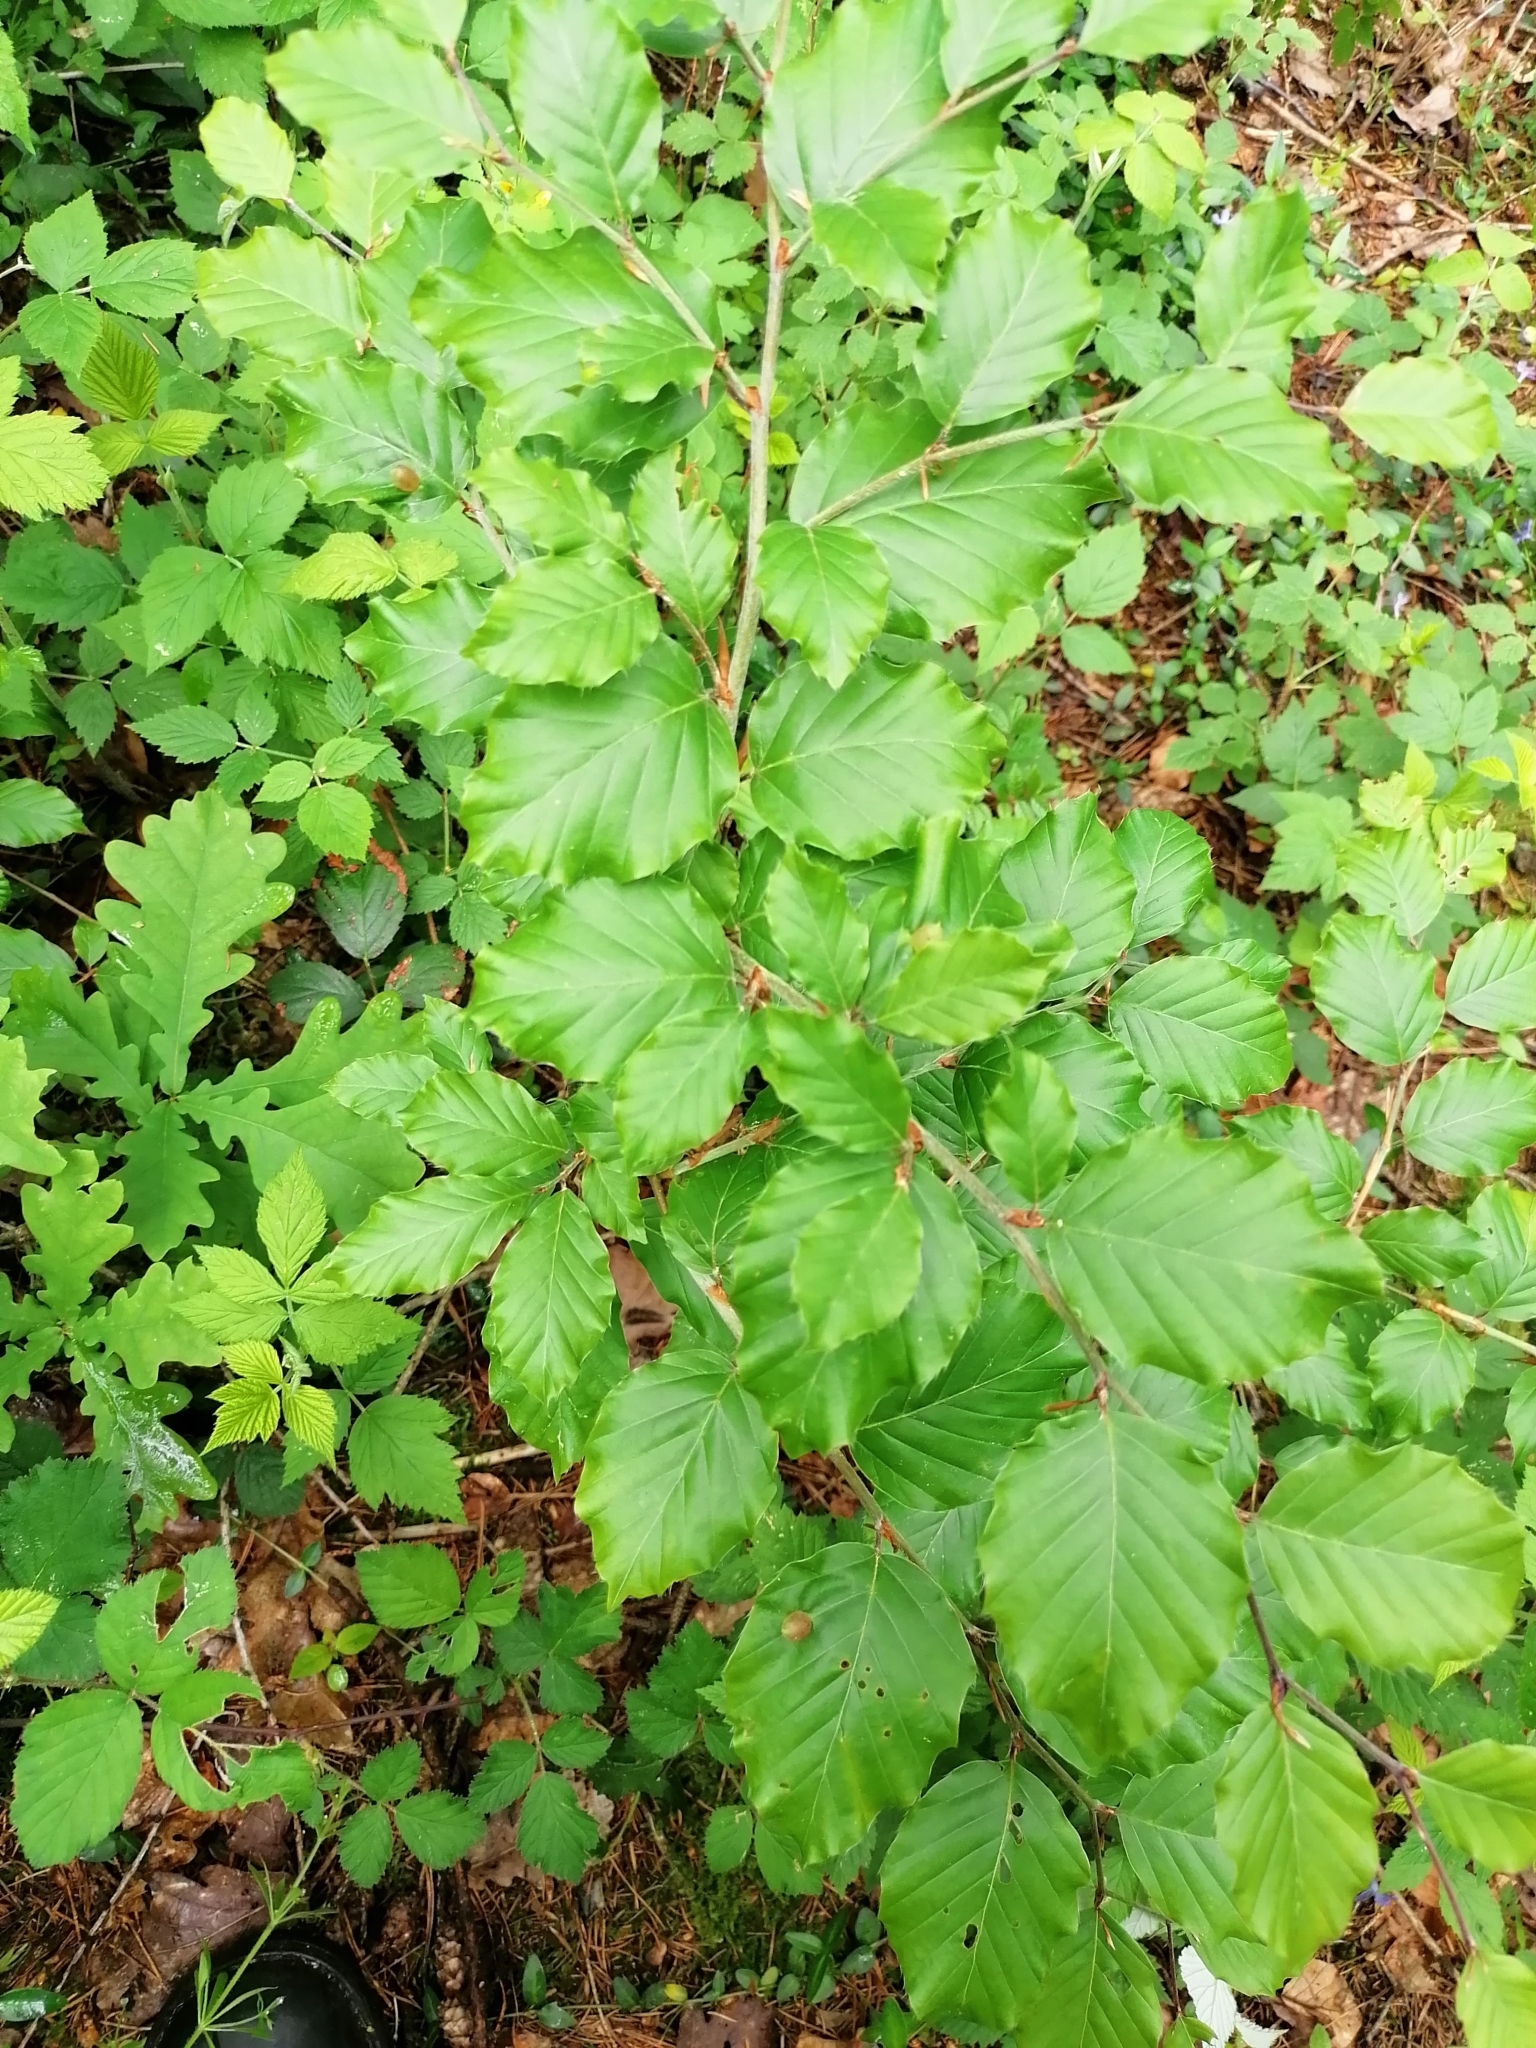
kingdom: Animalia
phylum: Arthropoda
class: Insecta
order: Diptera
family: Cecidomyiidae
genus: Mikiola
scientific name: Mikiola fagi
